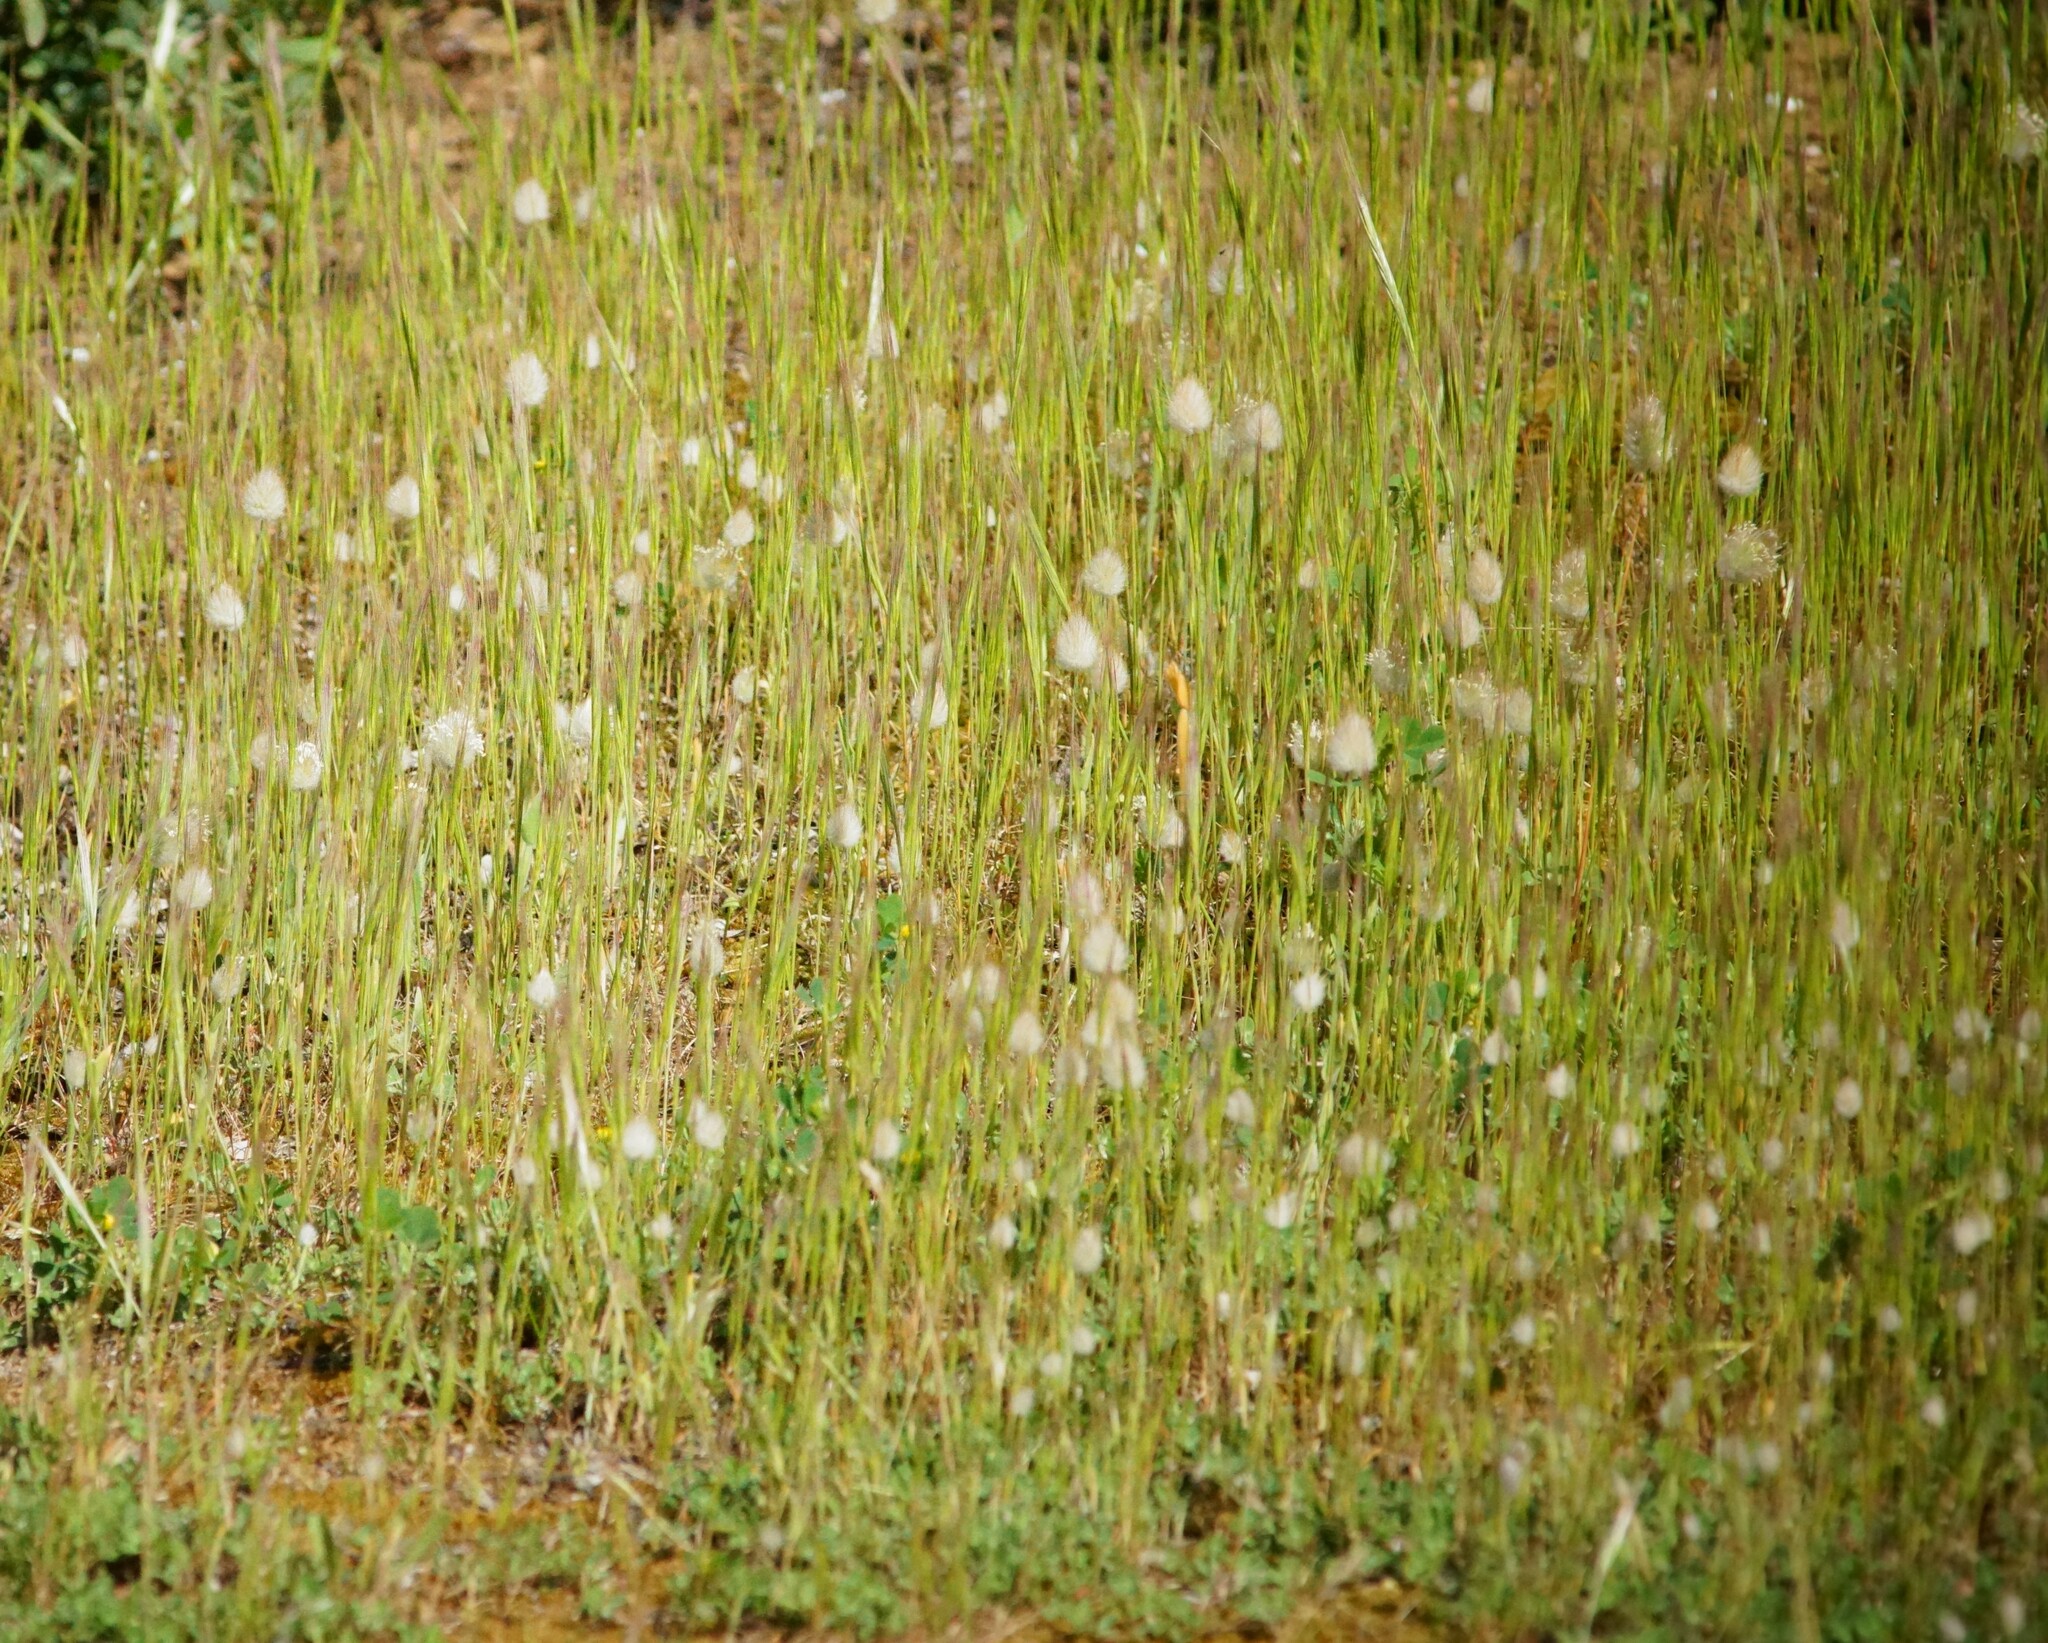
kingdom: Plantae
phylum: Tracheophyta
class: Liliopsida
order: Poales
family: Poaceae
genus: Lagurus
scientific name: Lagurus ovatus
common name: Hare's-tail
